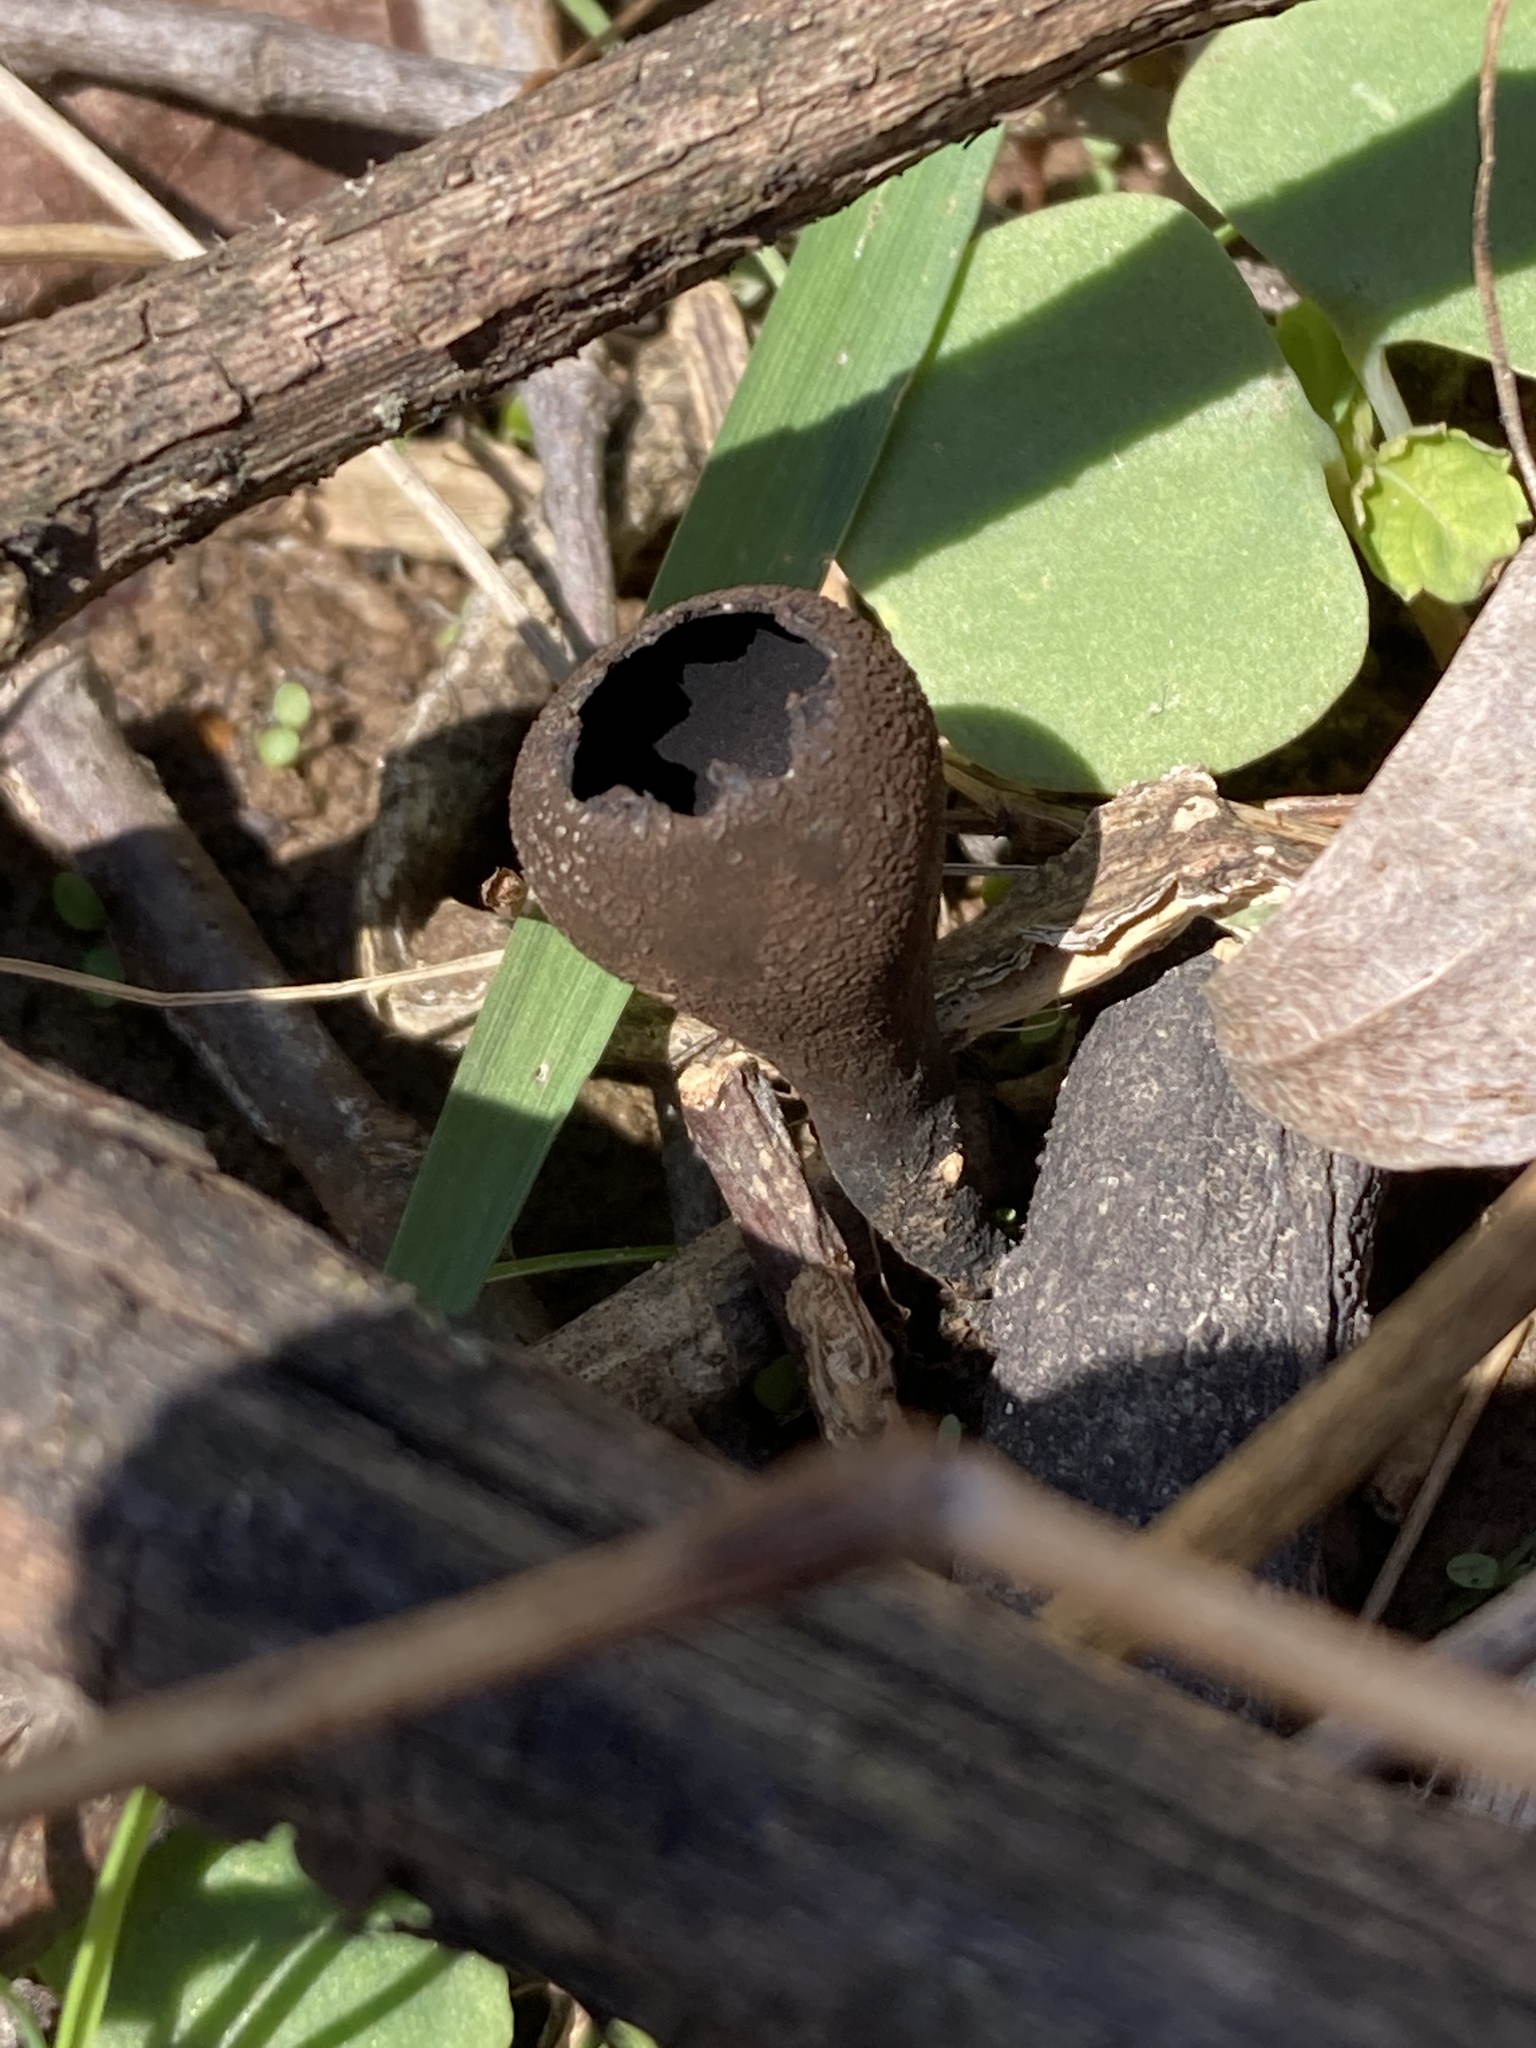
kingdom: Fungi
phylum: Ascomycota
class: Pezizomycetes
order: Pezizales
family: Sarcosomataceae
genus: Urnula
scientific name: Urnula craterium
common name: Devil's urn
